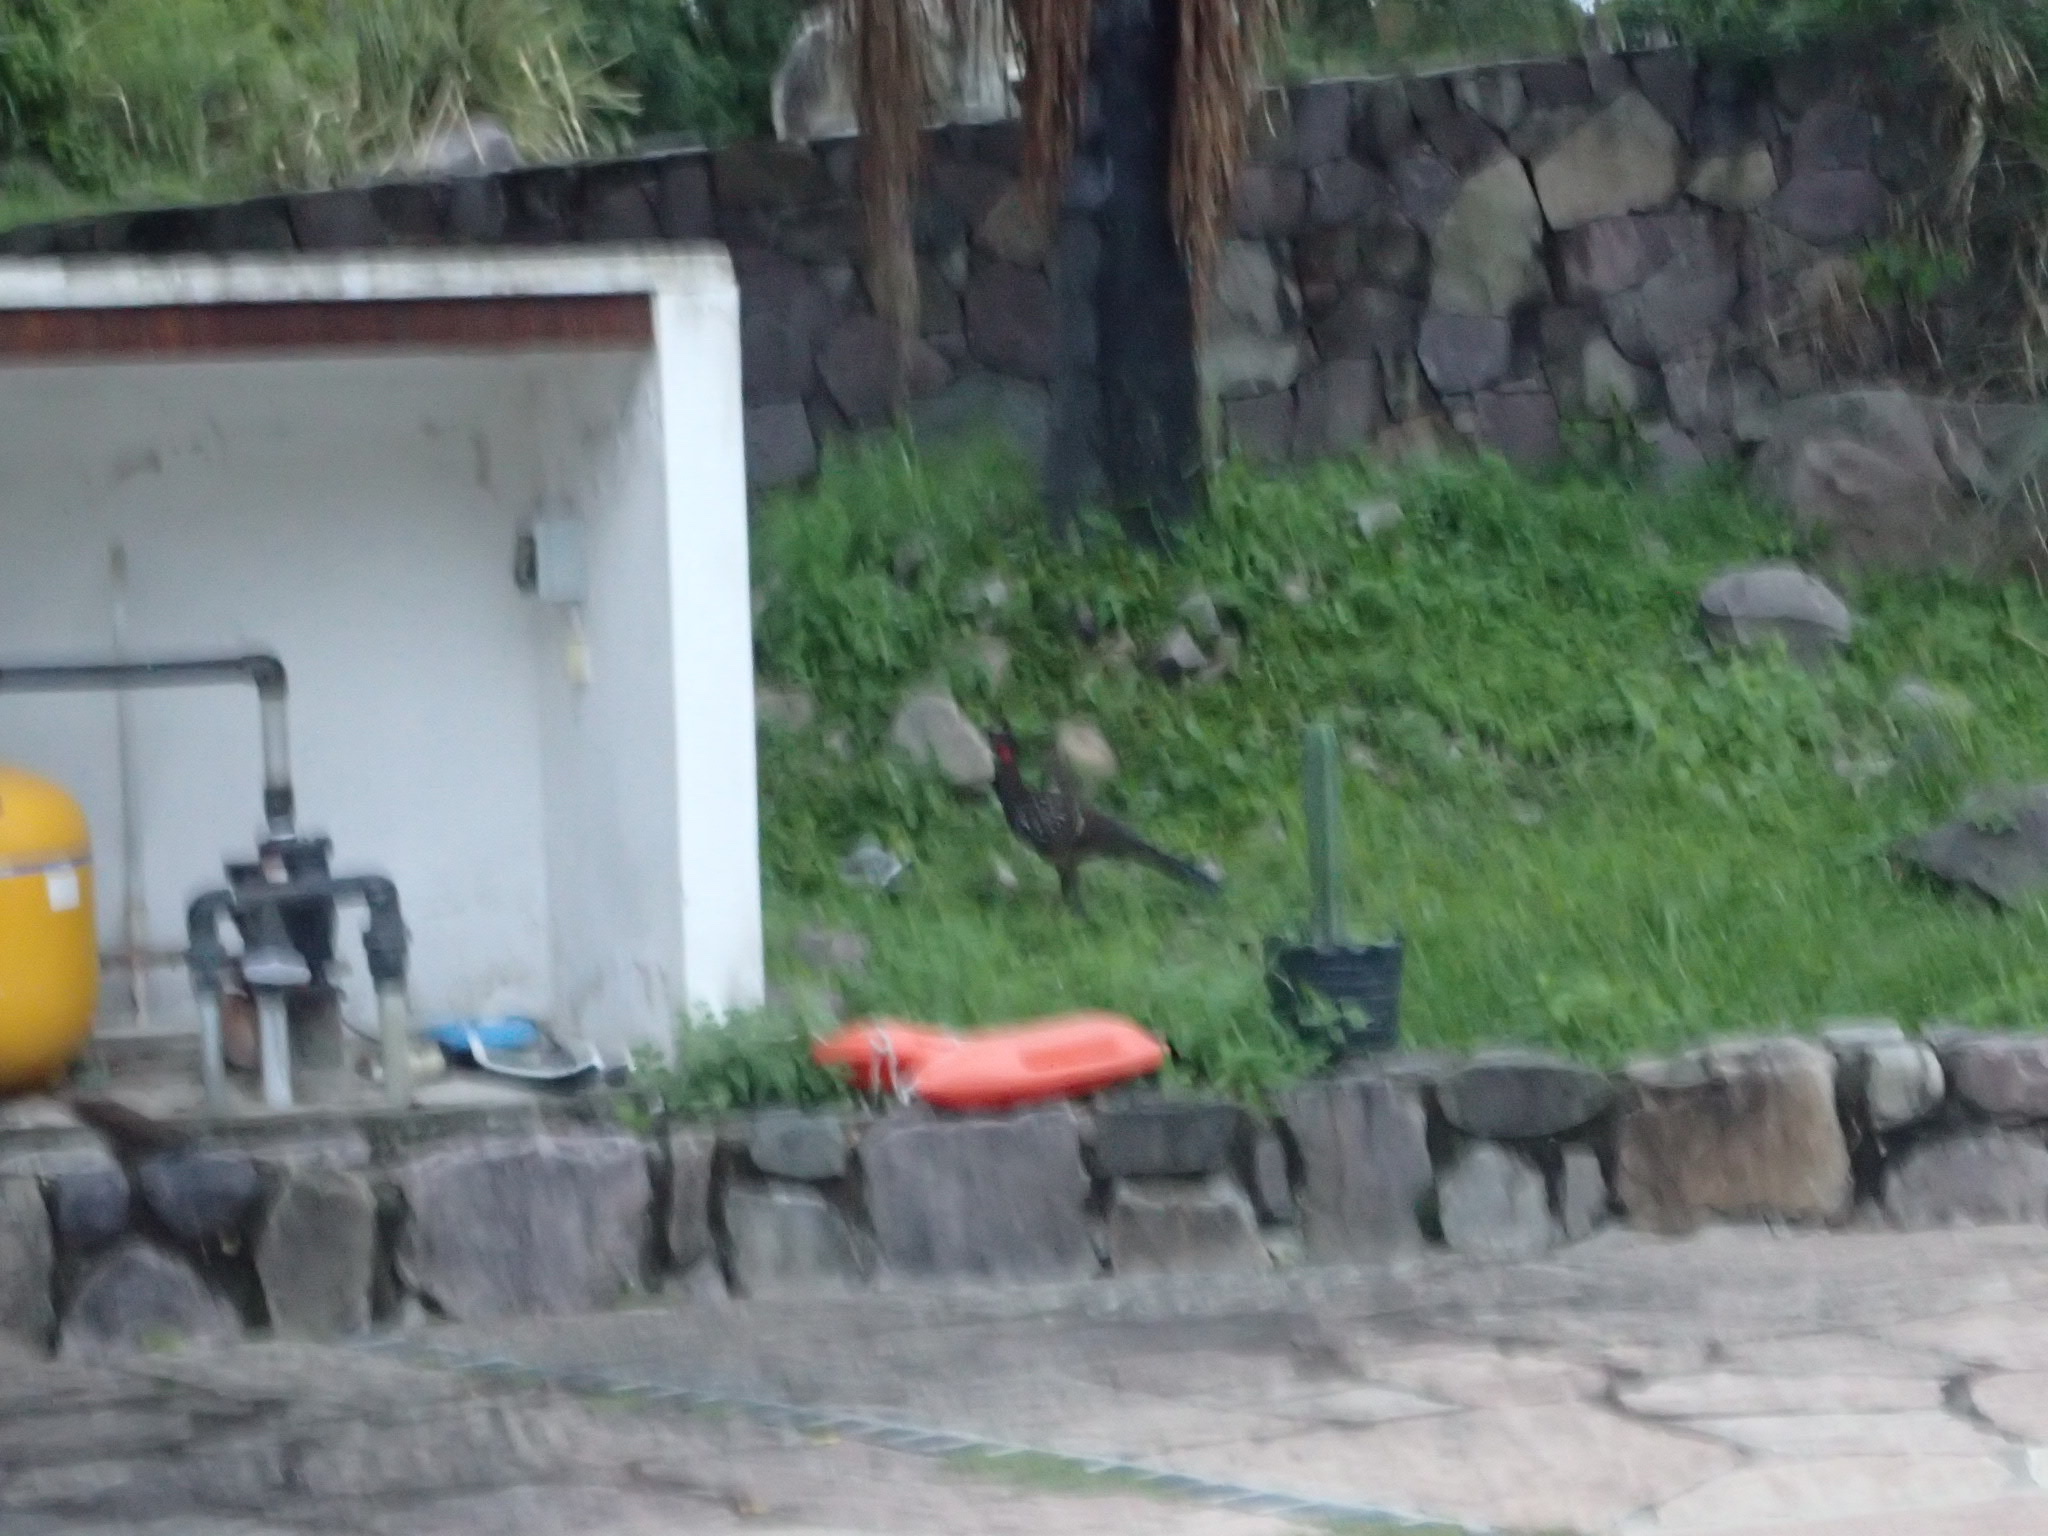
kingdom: Animalia
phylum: Chordata
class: Aves
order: Galliformes
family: Cracidae
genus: Penelope
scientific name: Penelope bridgesi
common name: Yungas guan
